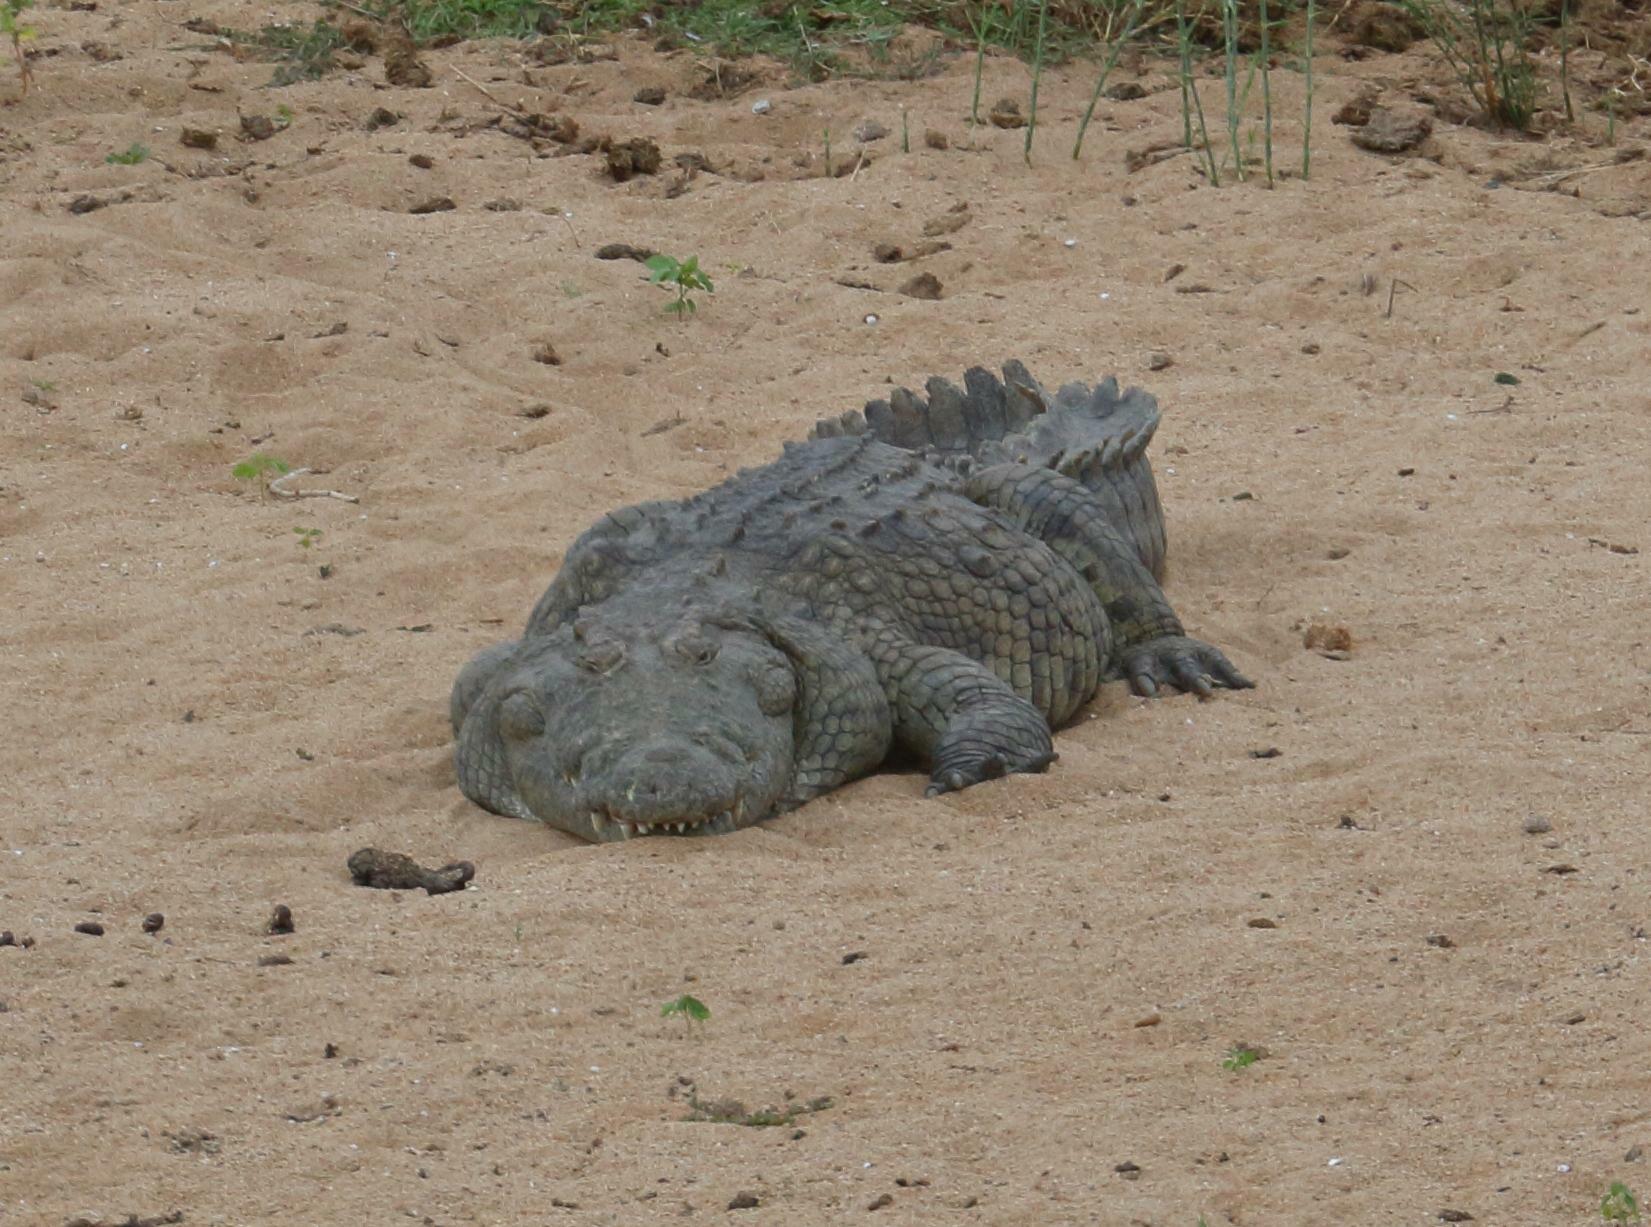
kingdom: Animalia
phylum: Chordata
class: Crocodylia
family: Crocodylidae
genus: Crocodylus
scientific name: Crocodylus niloticus
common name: Nile crocodile
